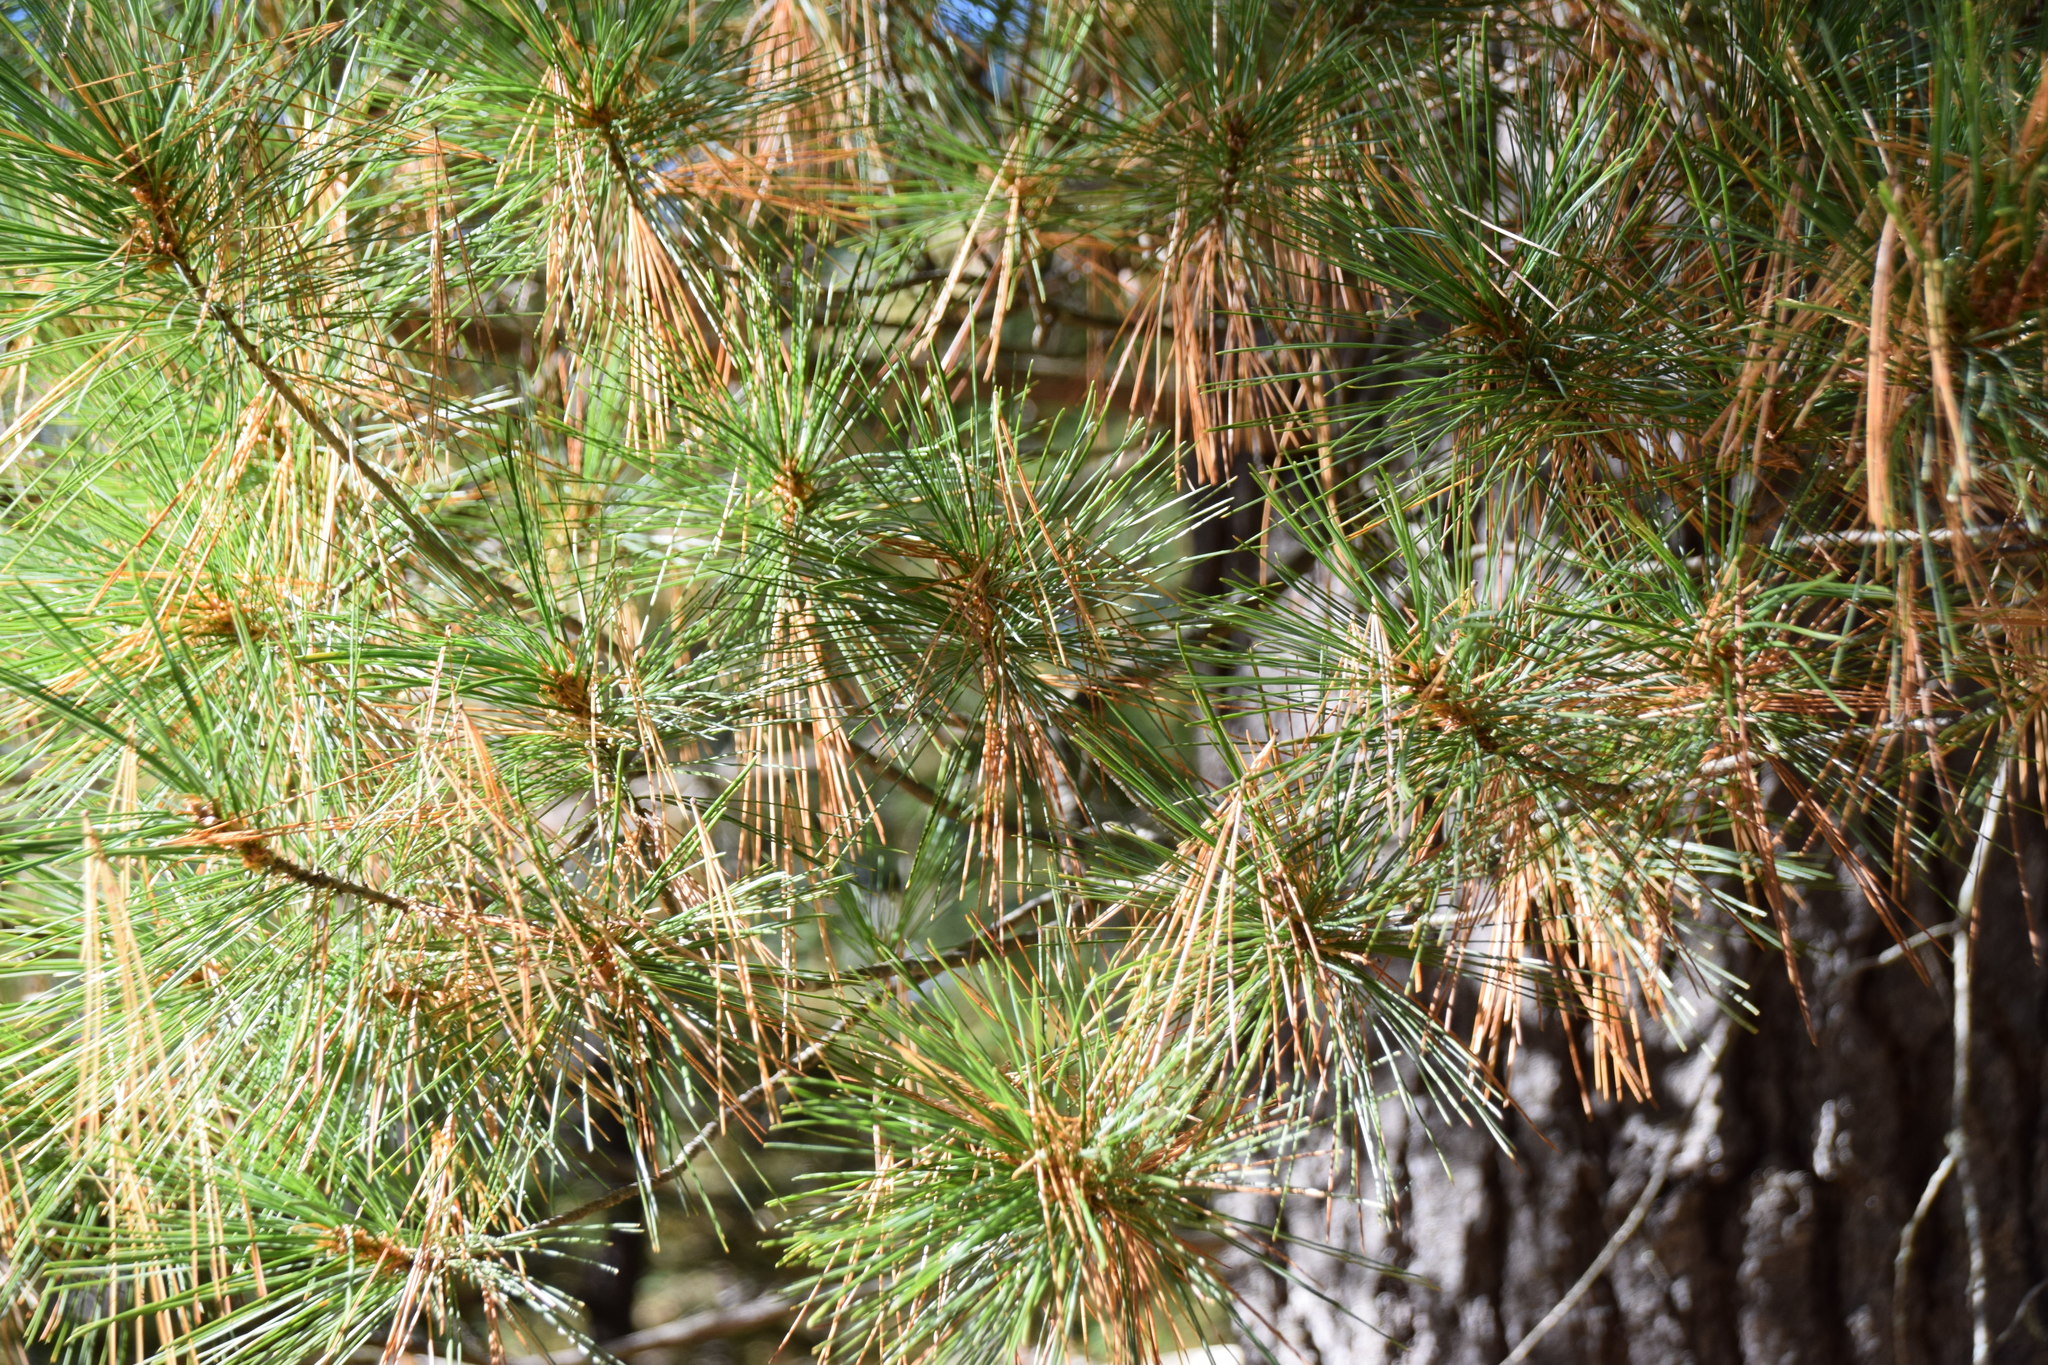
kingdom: Plantae
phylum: Tracheophyta
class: Pinopsida
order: Pinales
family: Pinaceae
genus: Pinus
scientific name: Pinus strobus
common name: Weymouth pine
